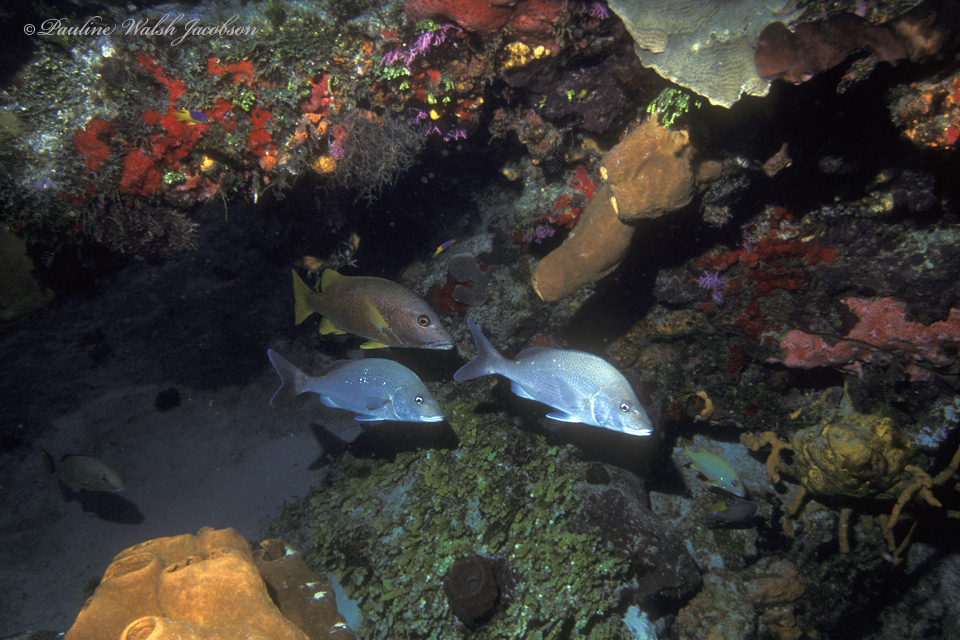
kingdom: Animalia
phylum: Chordata
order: Perciformes
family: Haemulidae
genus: Haemulon
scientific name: Haemulon album
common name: Margate
